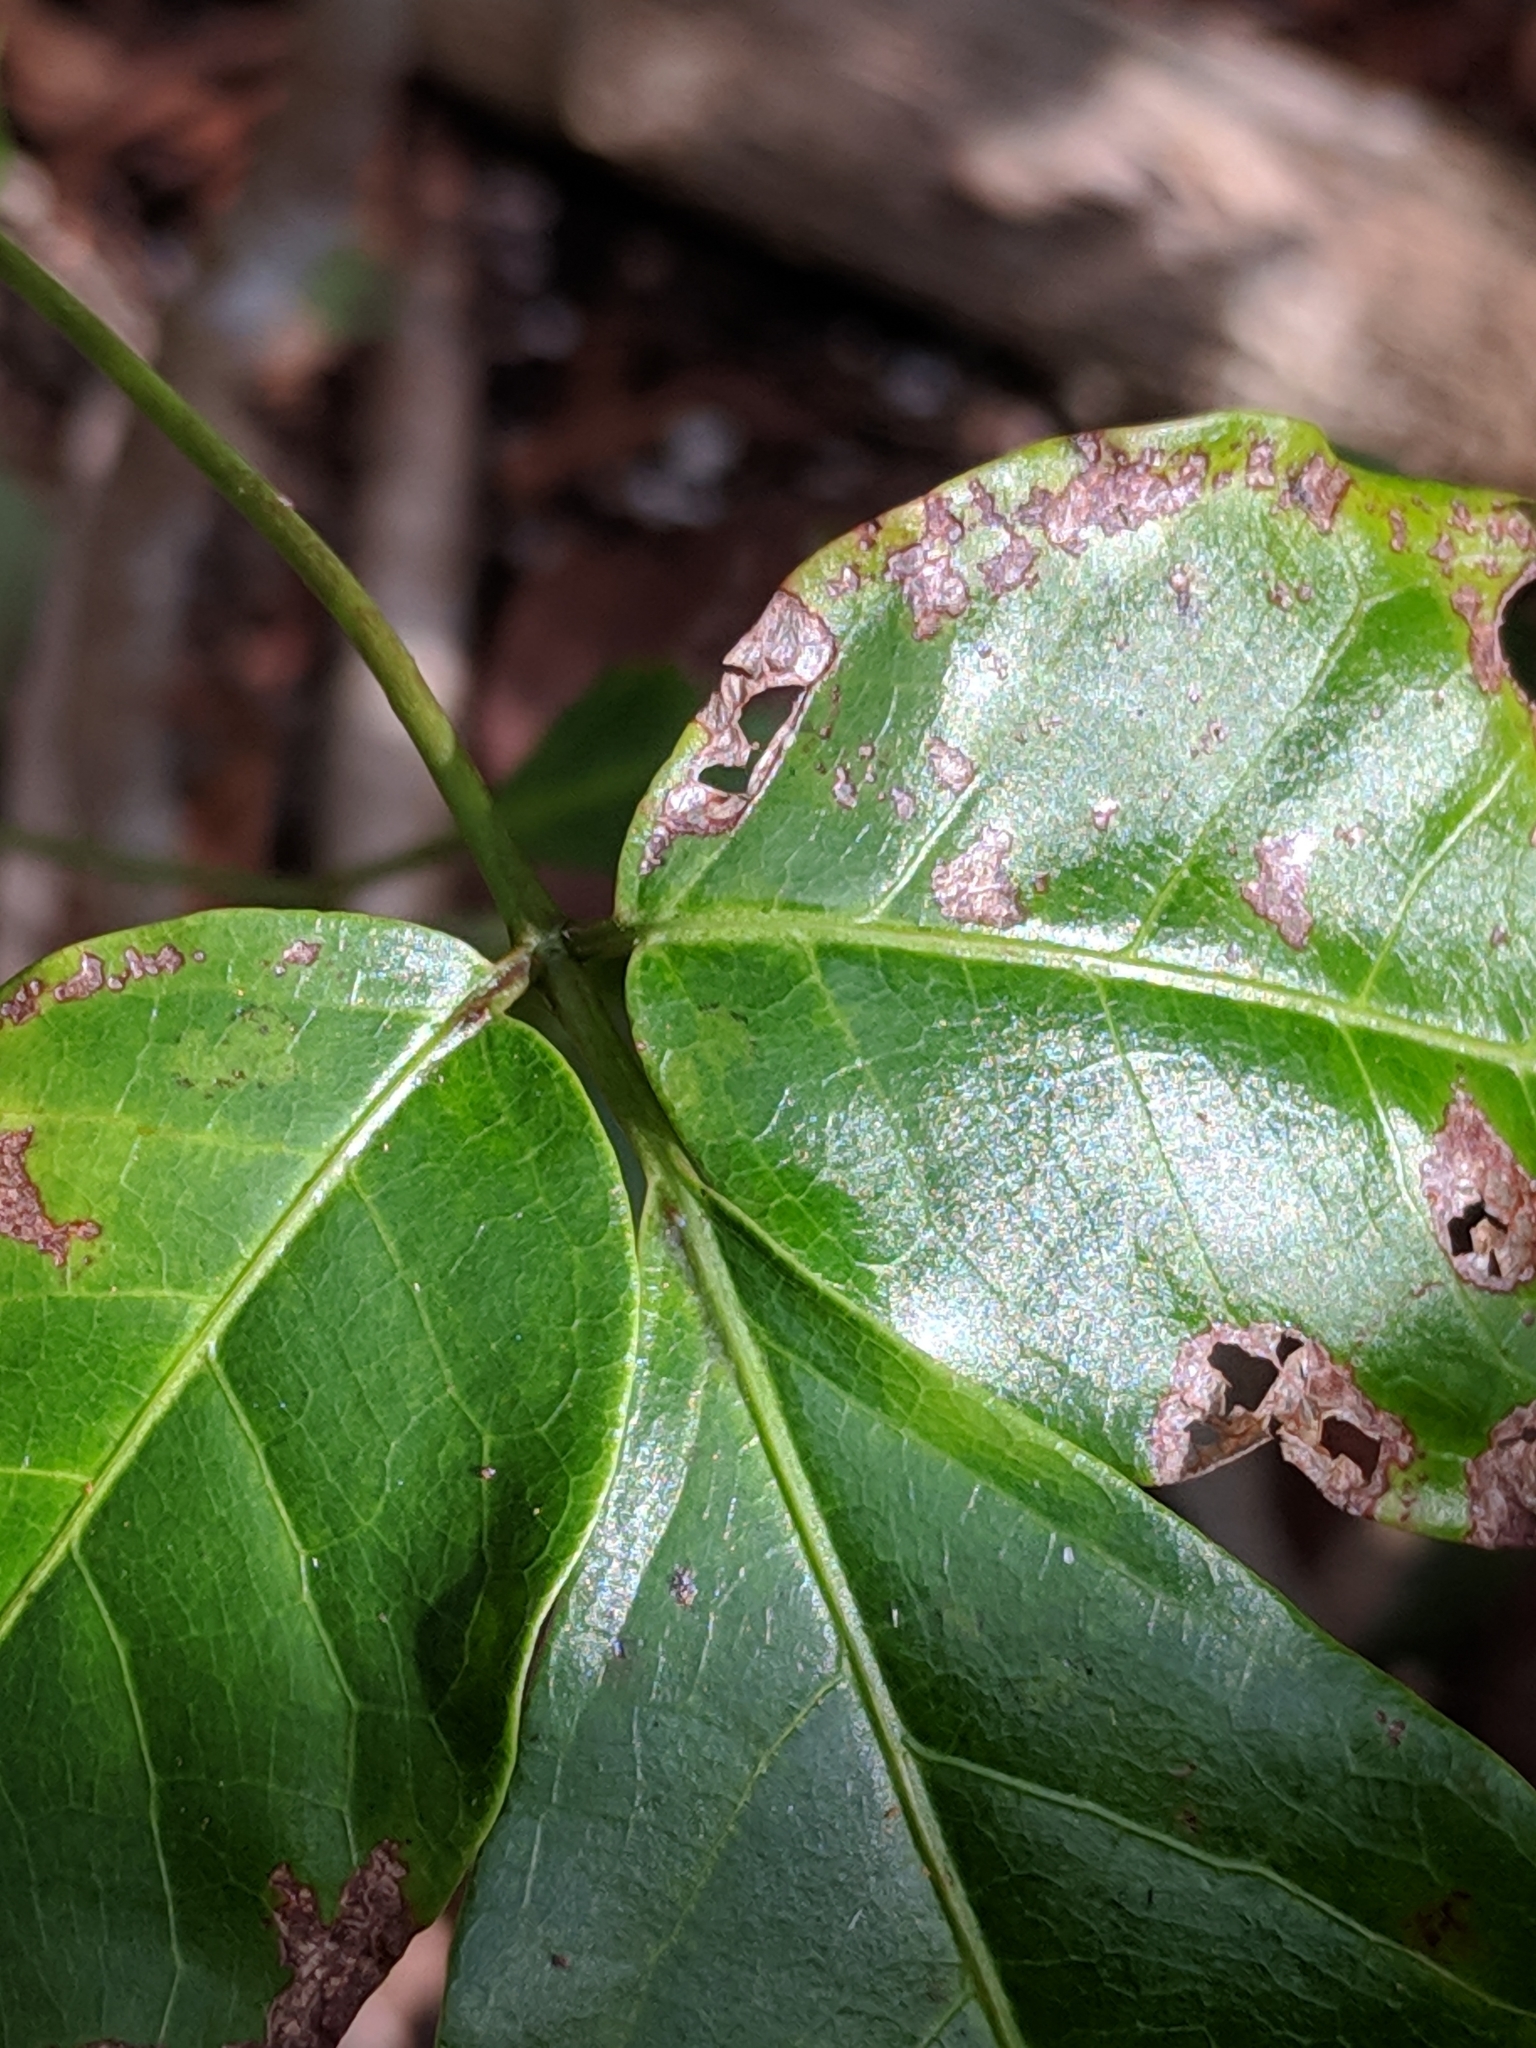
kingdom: Plantae
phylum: Tracheophyta
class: Magnoliopsida
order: Sapindales
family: Burseraceae
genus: Bursera
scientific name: Bursera simaruba
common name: Turpentine tree
